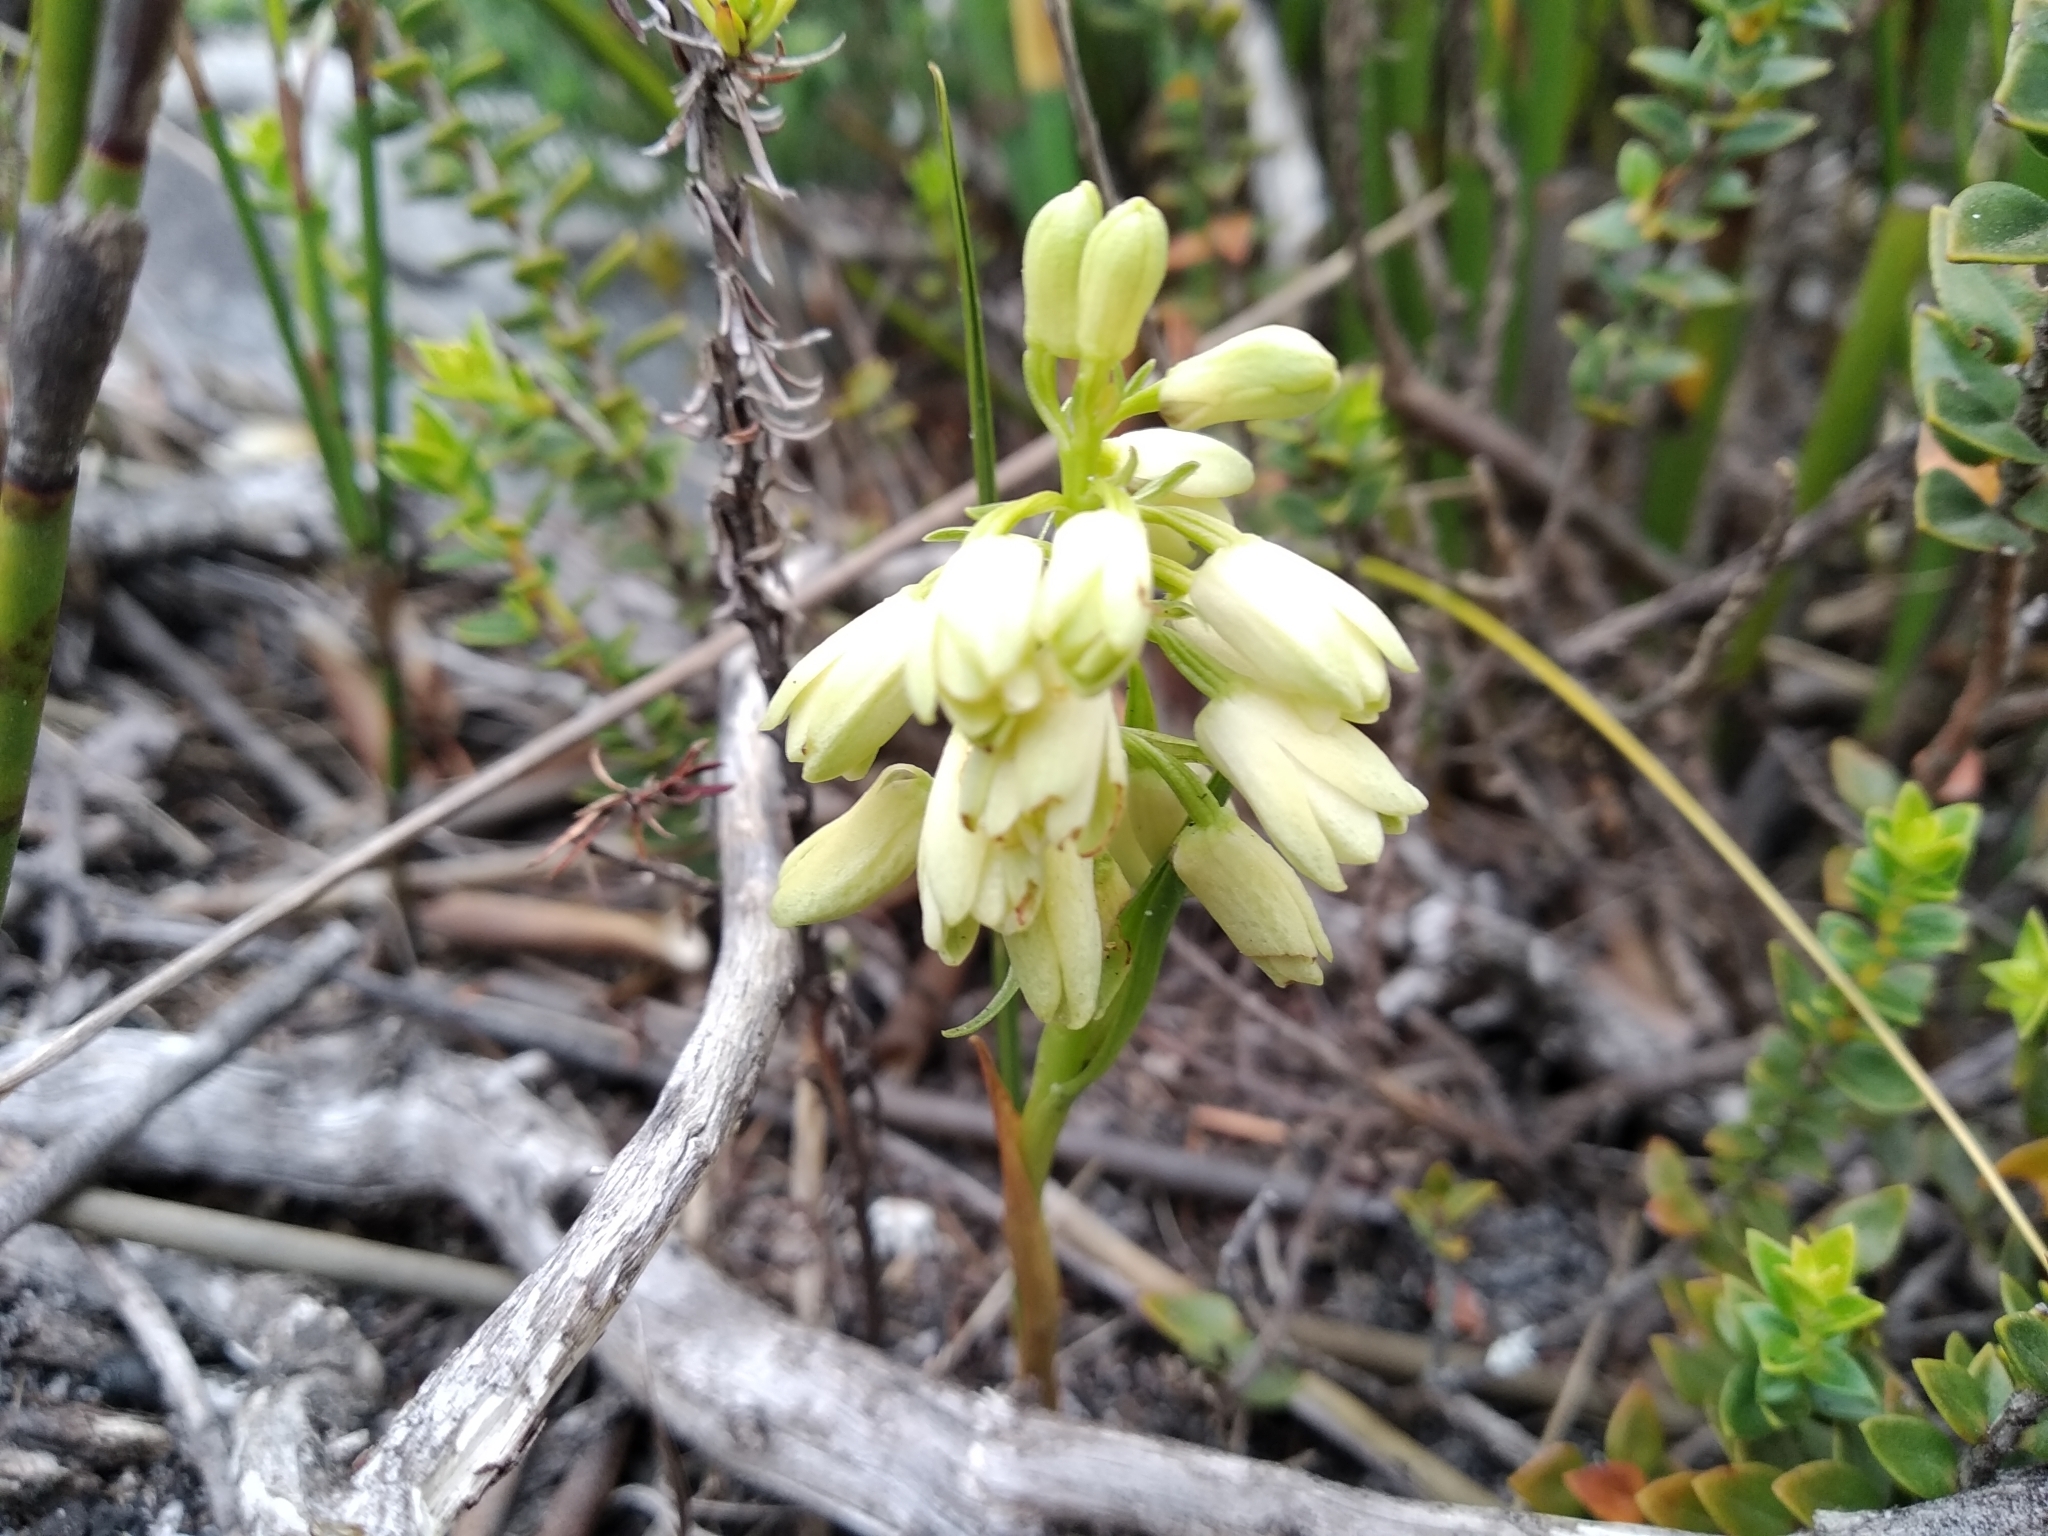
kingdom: Plantae
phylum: Tracheophyta
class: Liliopsida
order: Asparagales
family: Orchidaceae
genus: Eulophia
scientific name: Eulophia aculeata
